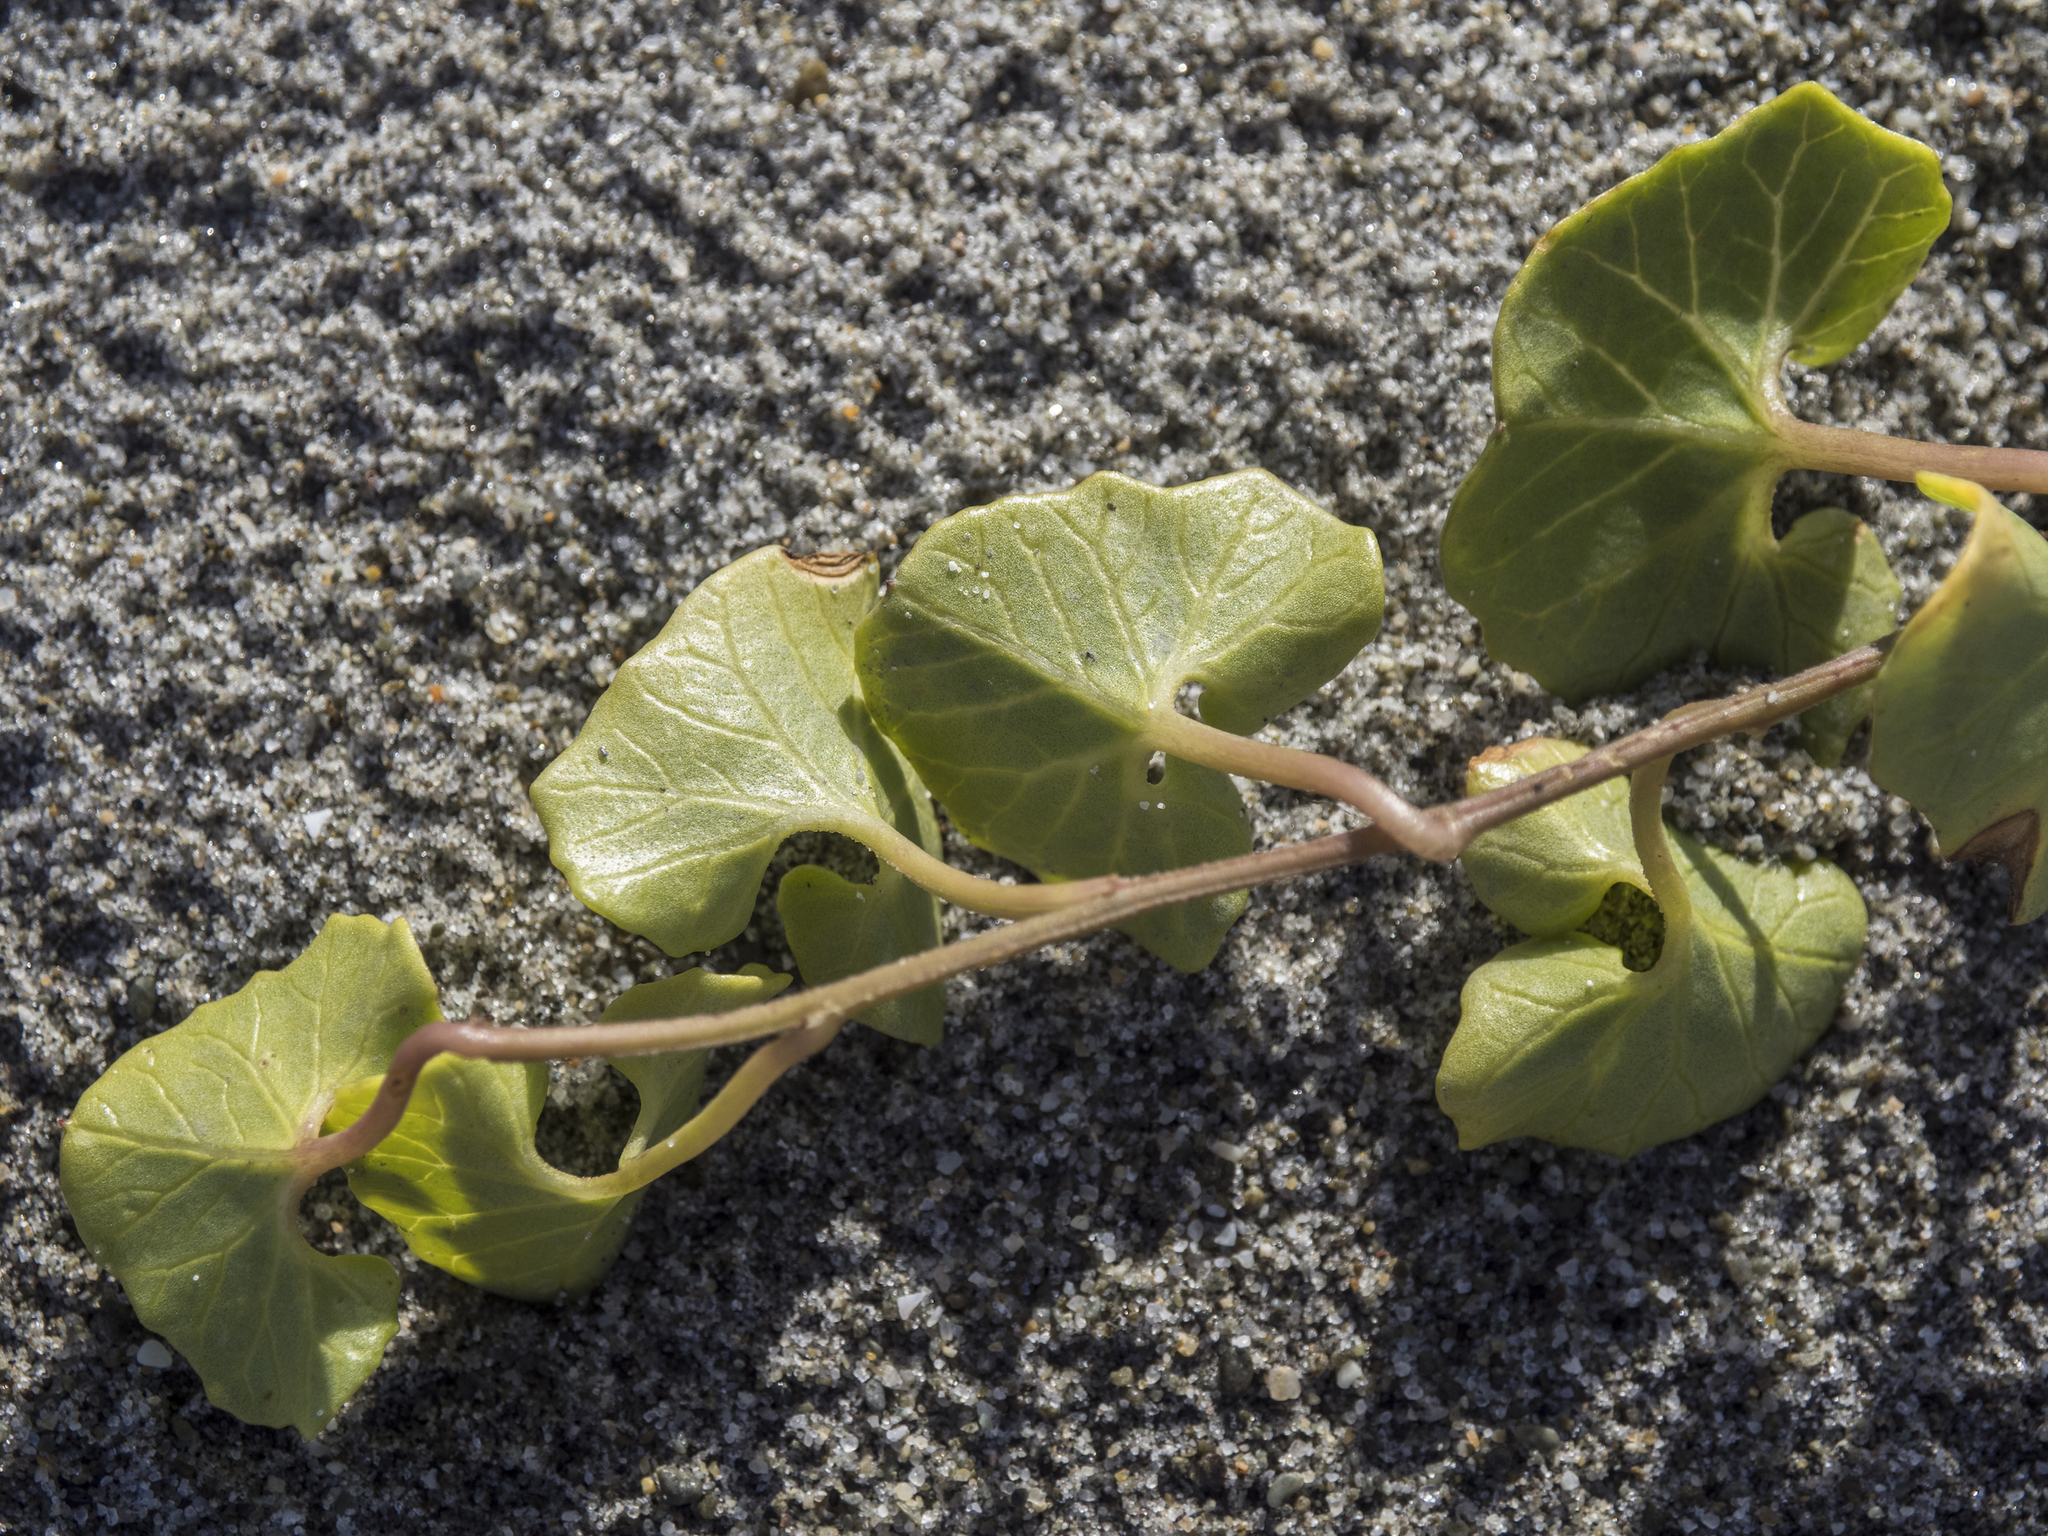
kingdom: Plantae
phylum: Tracheophyta
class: Magnoliopsida
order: Solanales
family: Convolvulaceae
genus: Calystegia
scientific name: Calystegia soldanella
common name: Sea bindweed
